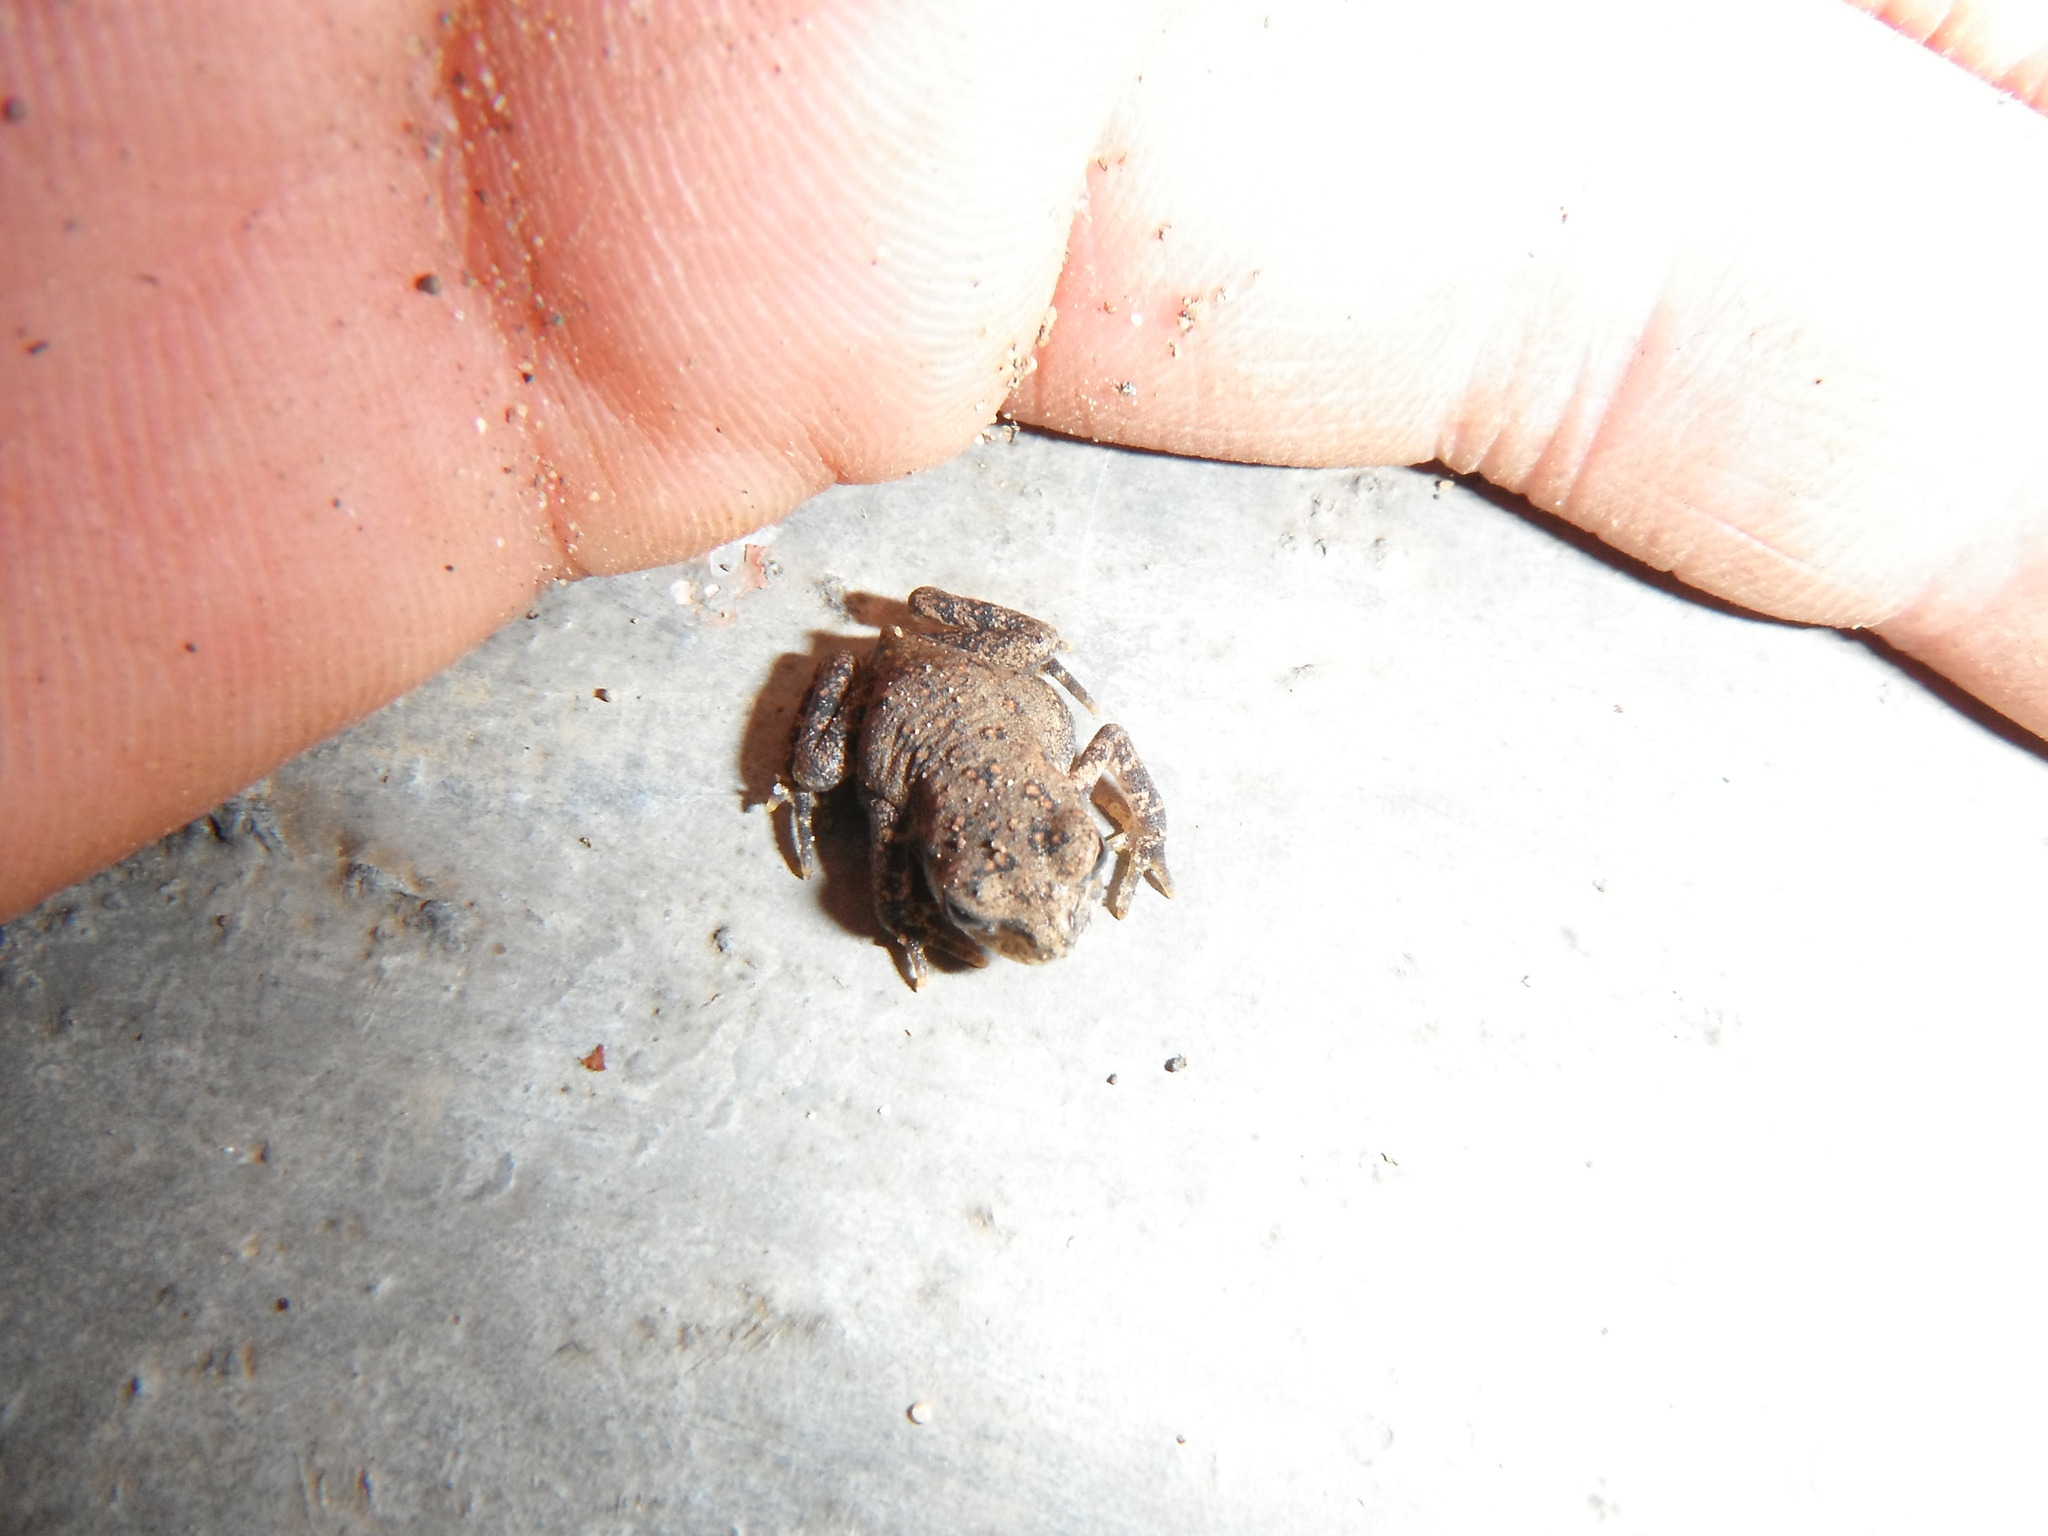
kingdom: Animalia
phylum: Chordata
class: Amphibia
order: Anura
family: Bufonidae
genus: Anaxyrus
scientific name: Anaxyrus americanus
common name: American toad
